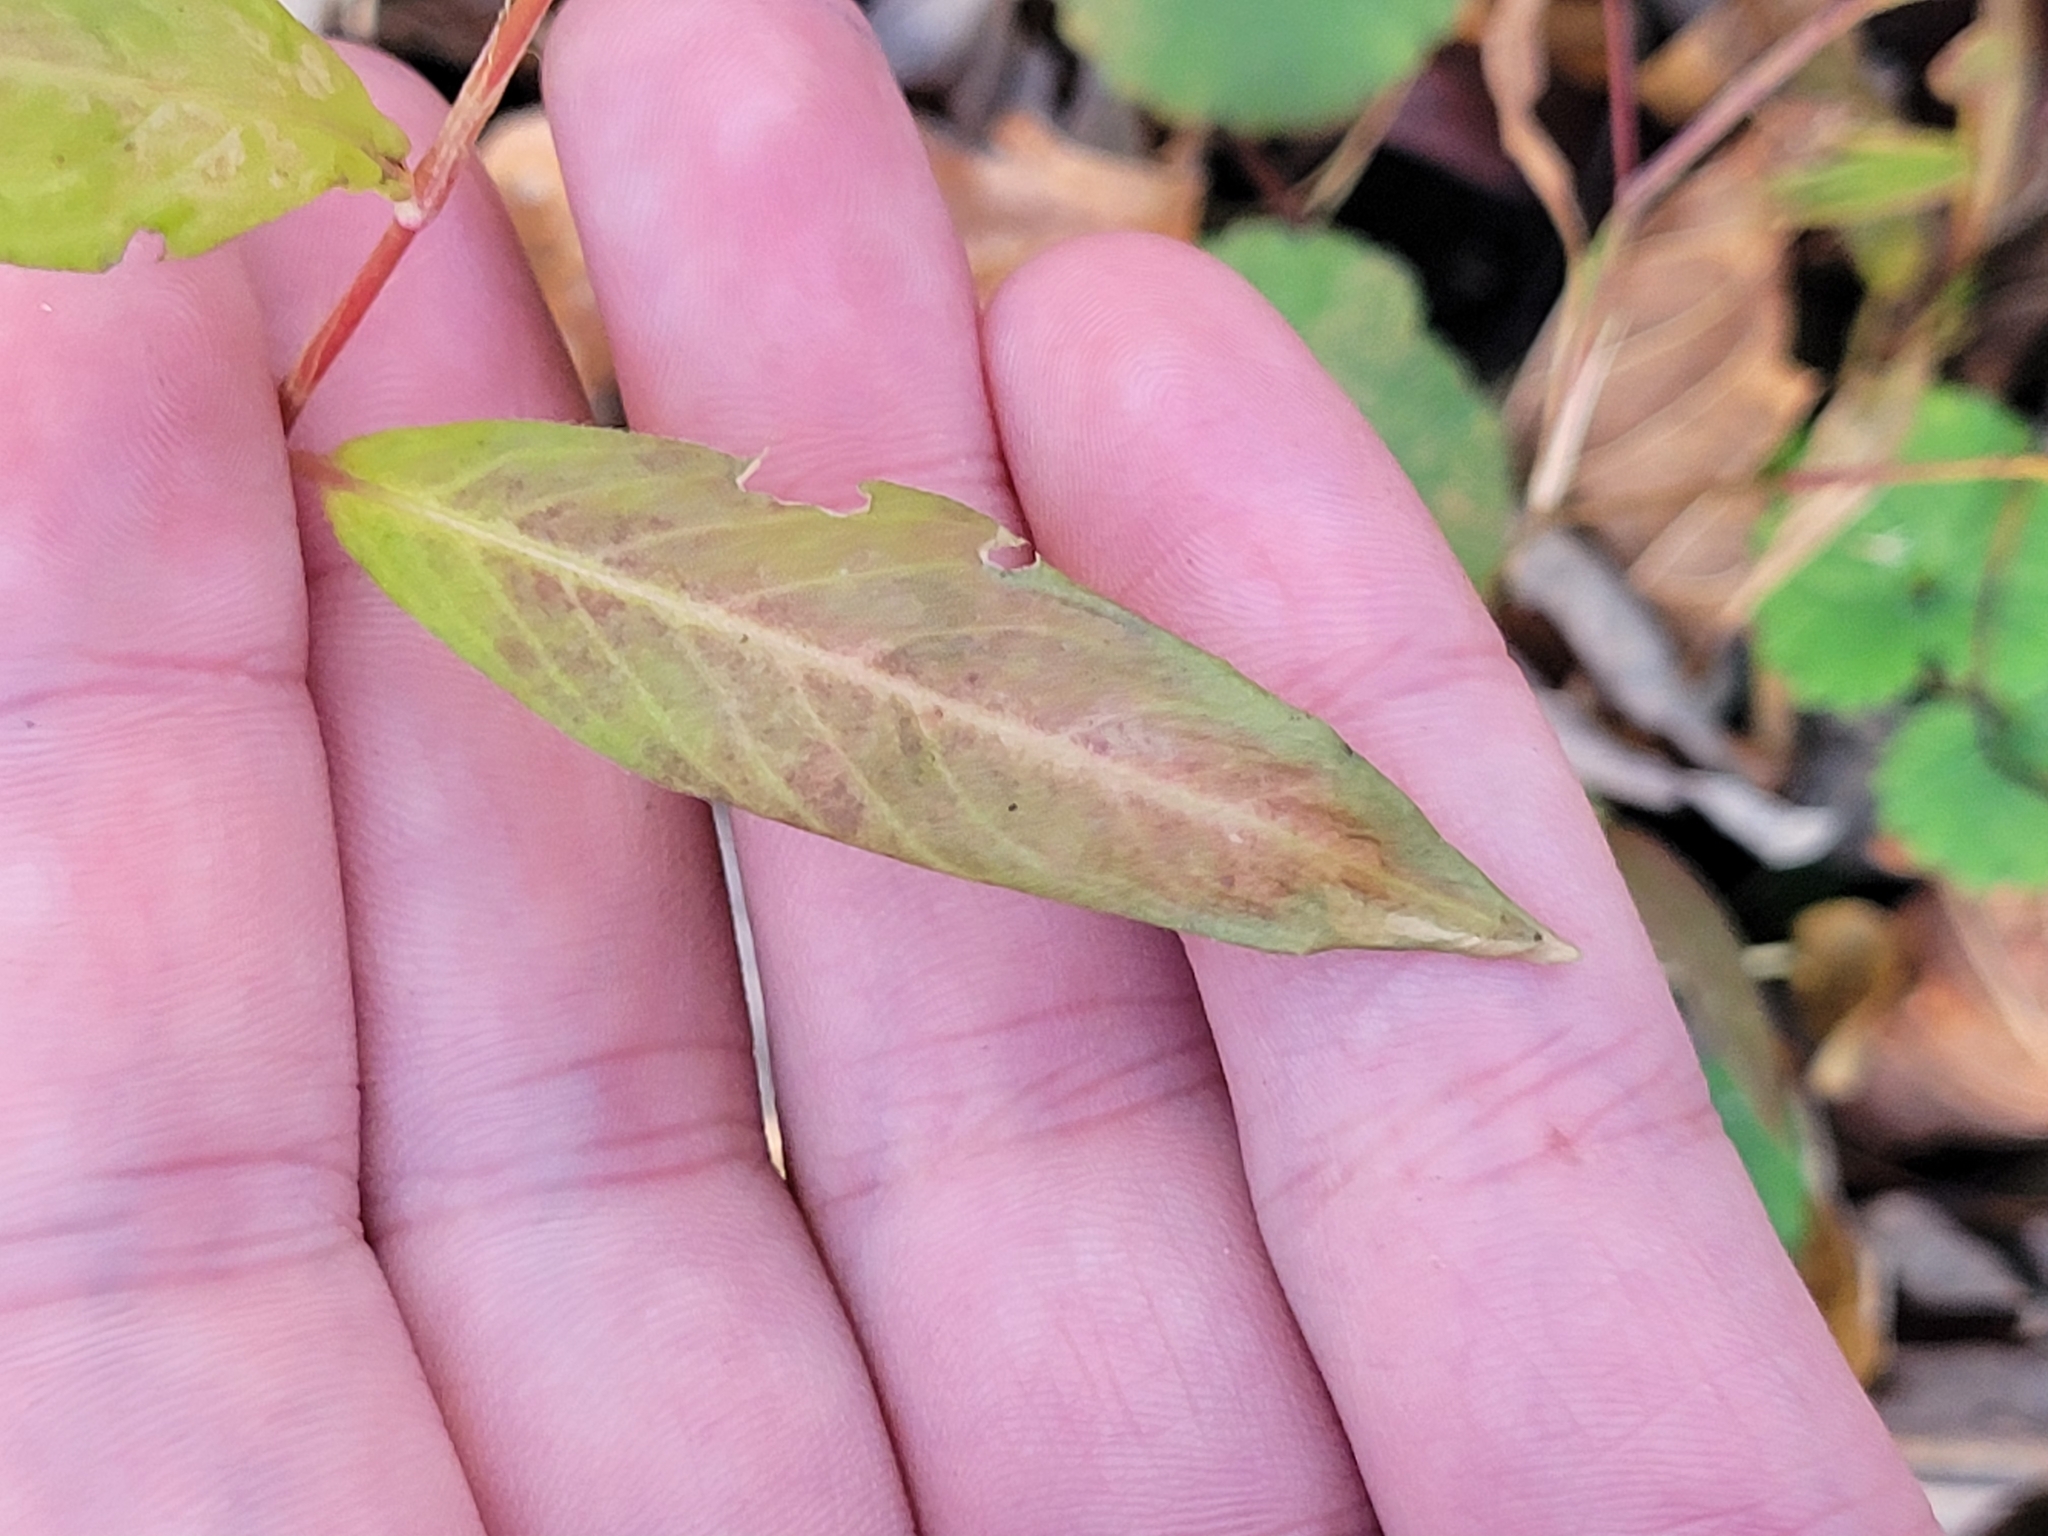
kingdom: Plantae
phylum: Tracheophyta
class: Magnoliopsida
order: Caryophyllales
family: Polygonaceae
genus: Persicaria
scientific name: Persicaria longiseta
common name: Bristly lady's-thumb
